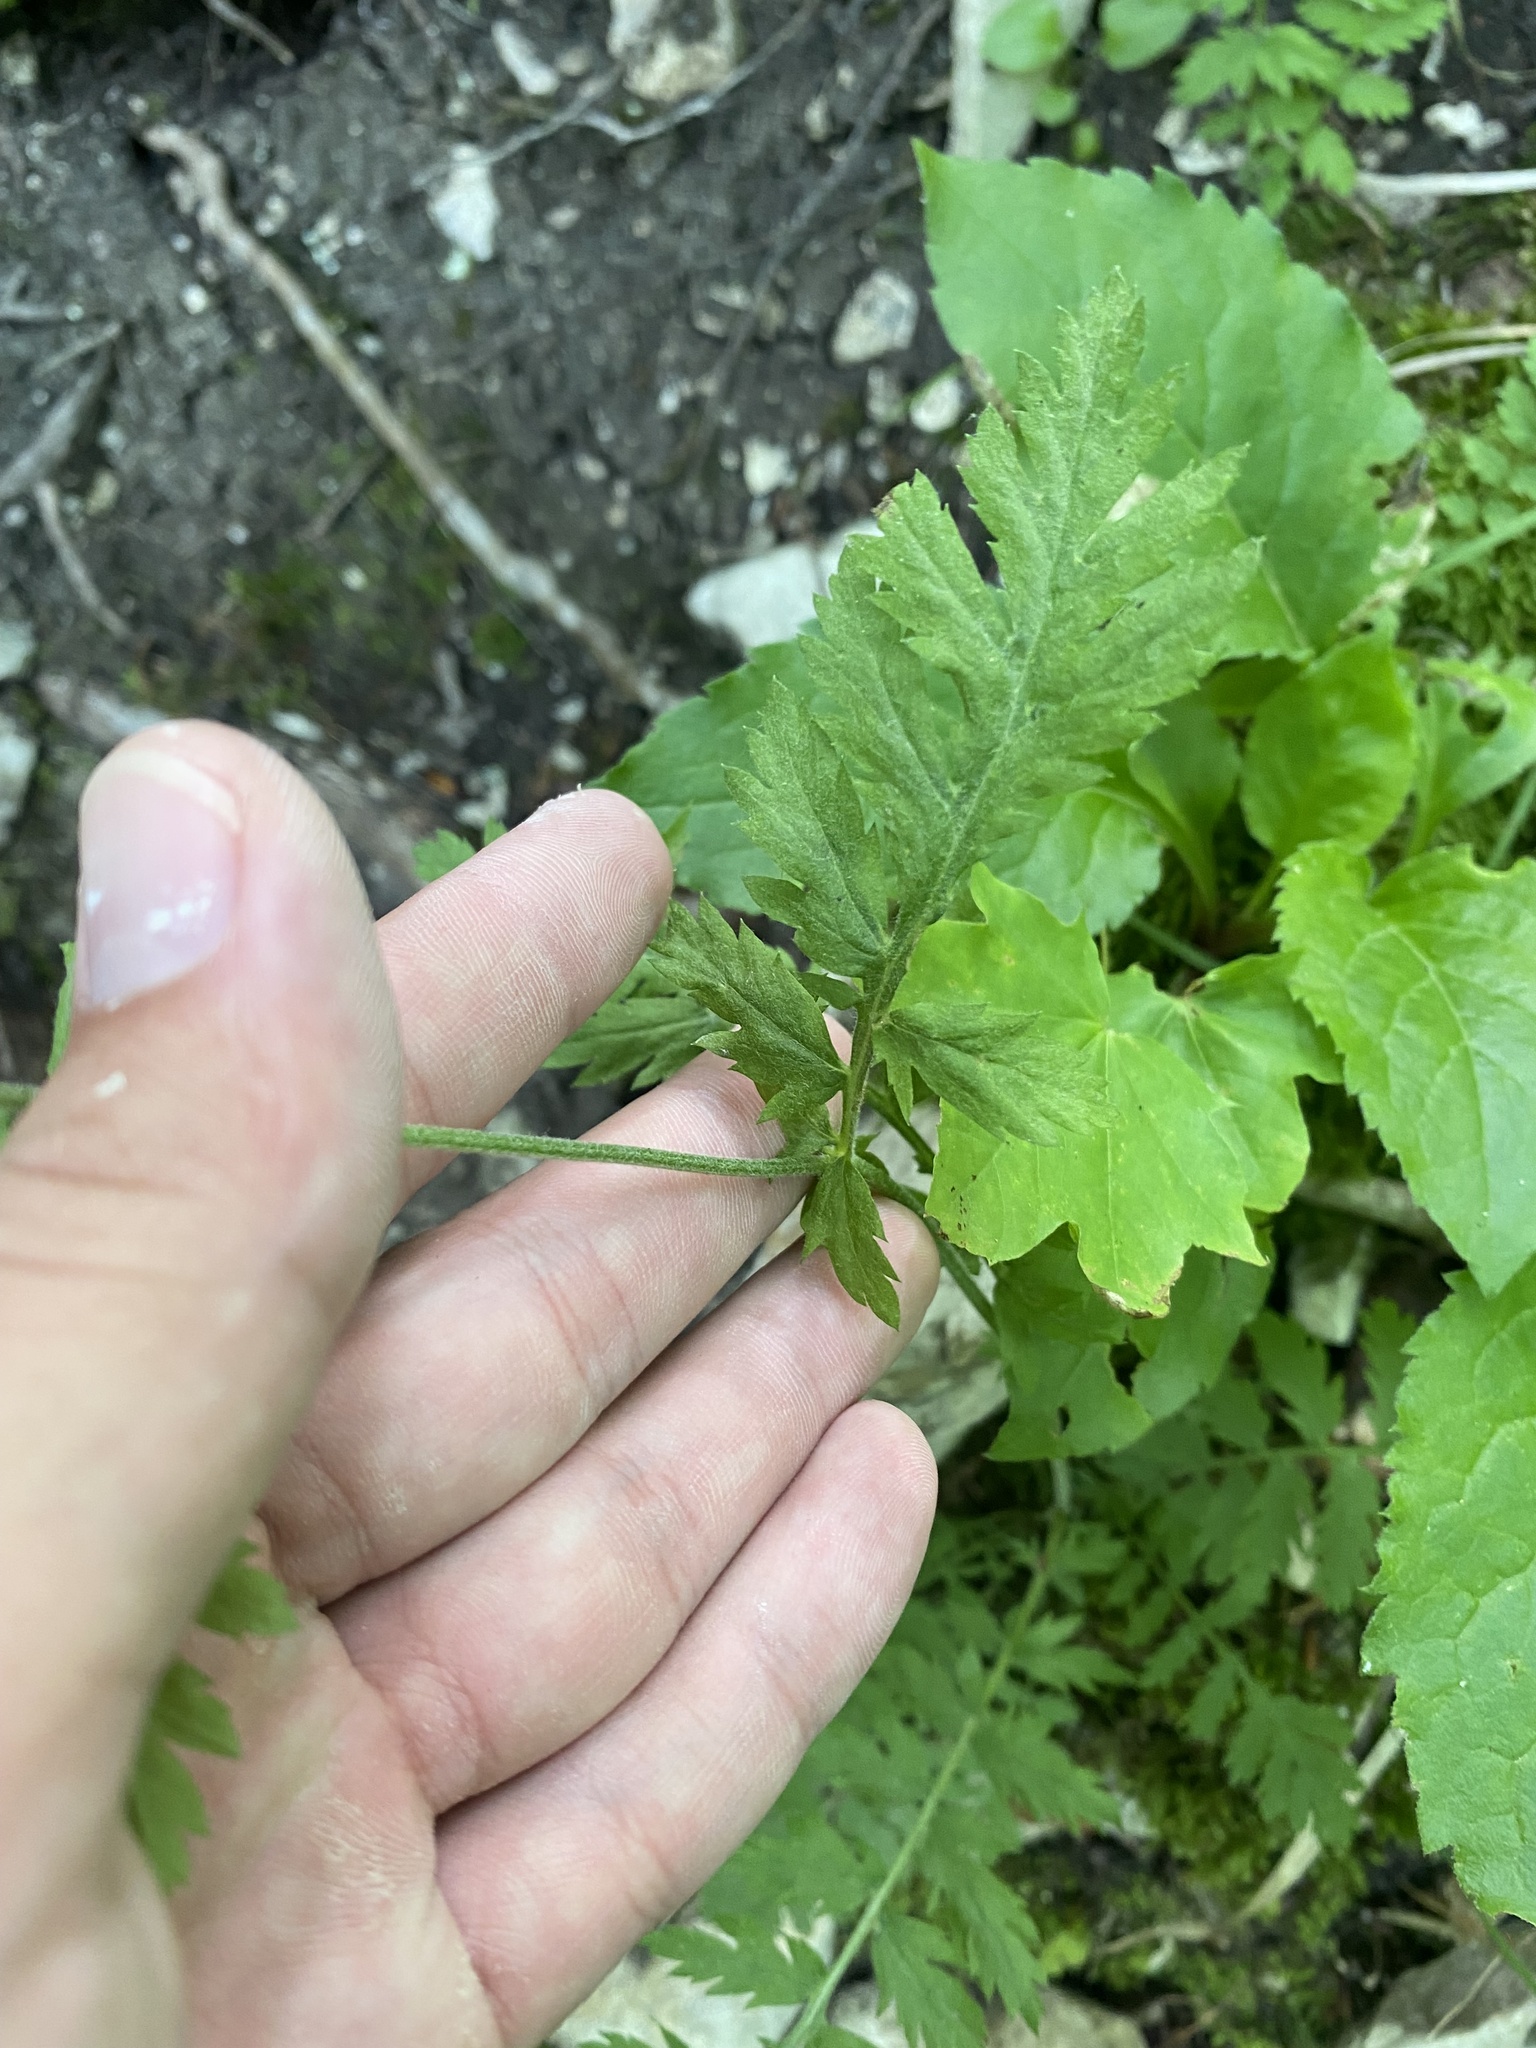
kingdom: Plantae
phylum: Tracheophyta
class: Magnoliopsida
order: Asterales
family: Asteraceae
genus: Tanacetum
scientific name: Tanacetum poteriifolium
